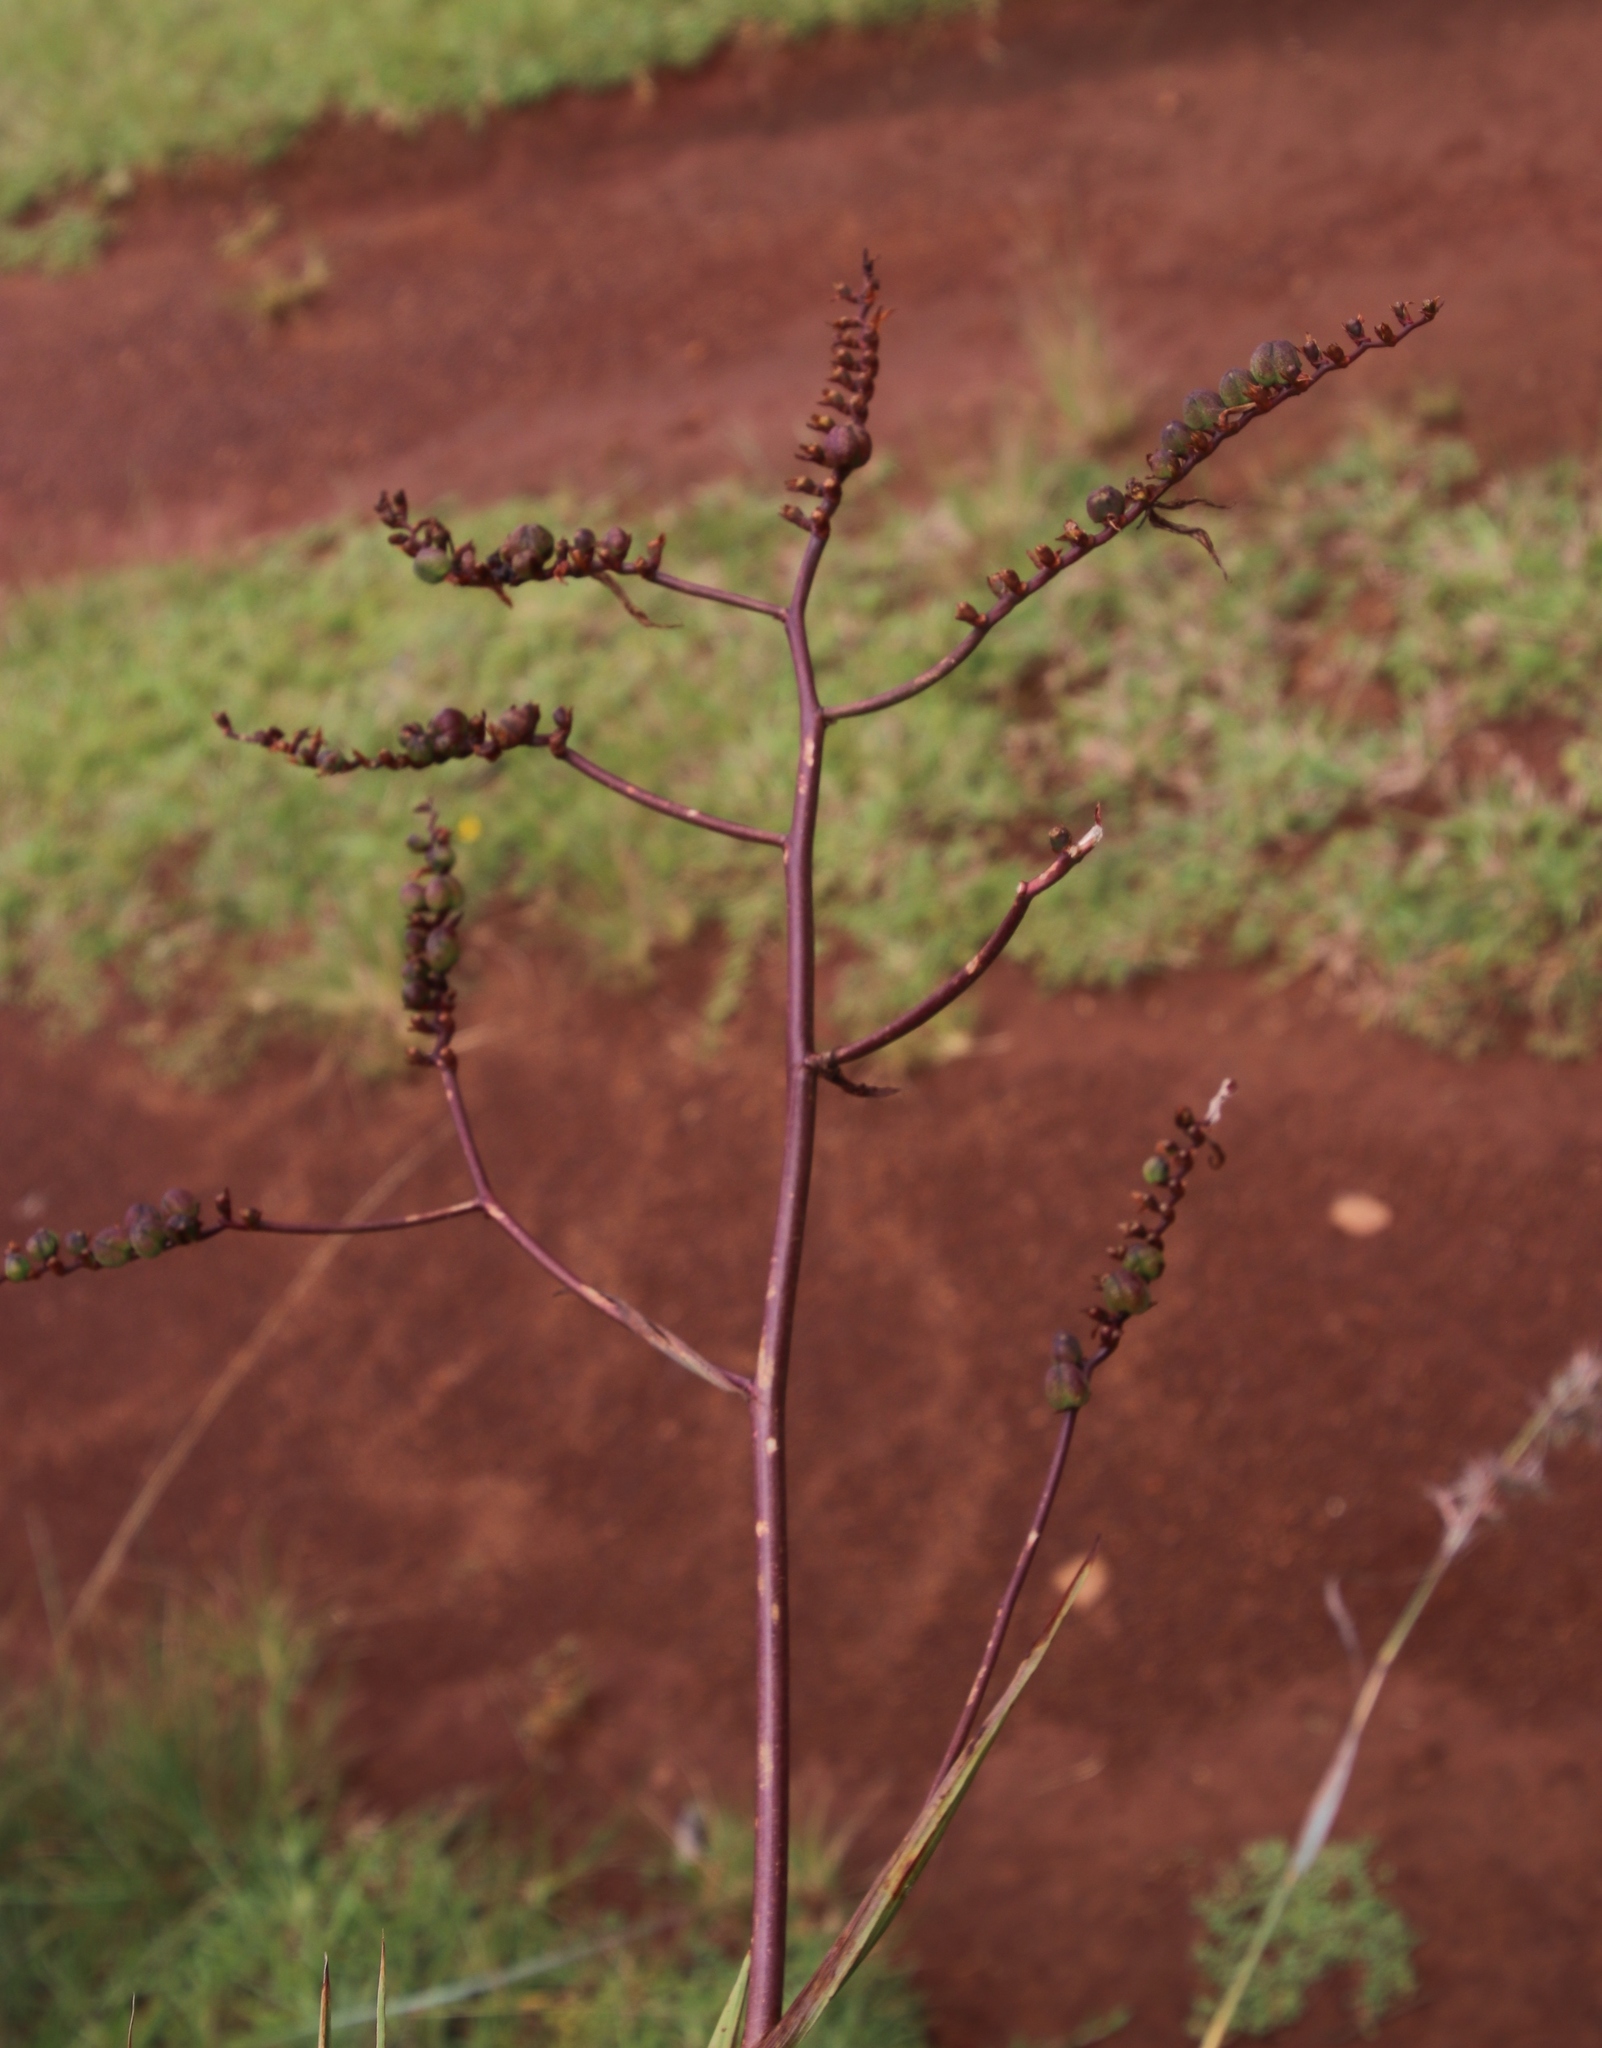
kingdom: Plantae
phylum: Tracheophyta
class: Liliopsida
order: Asparagales
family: Iridaceae
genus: Crocosmia
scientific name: Crocosmia paniculata
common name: Aunt eliza
